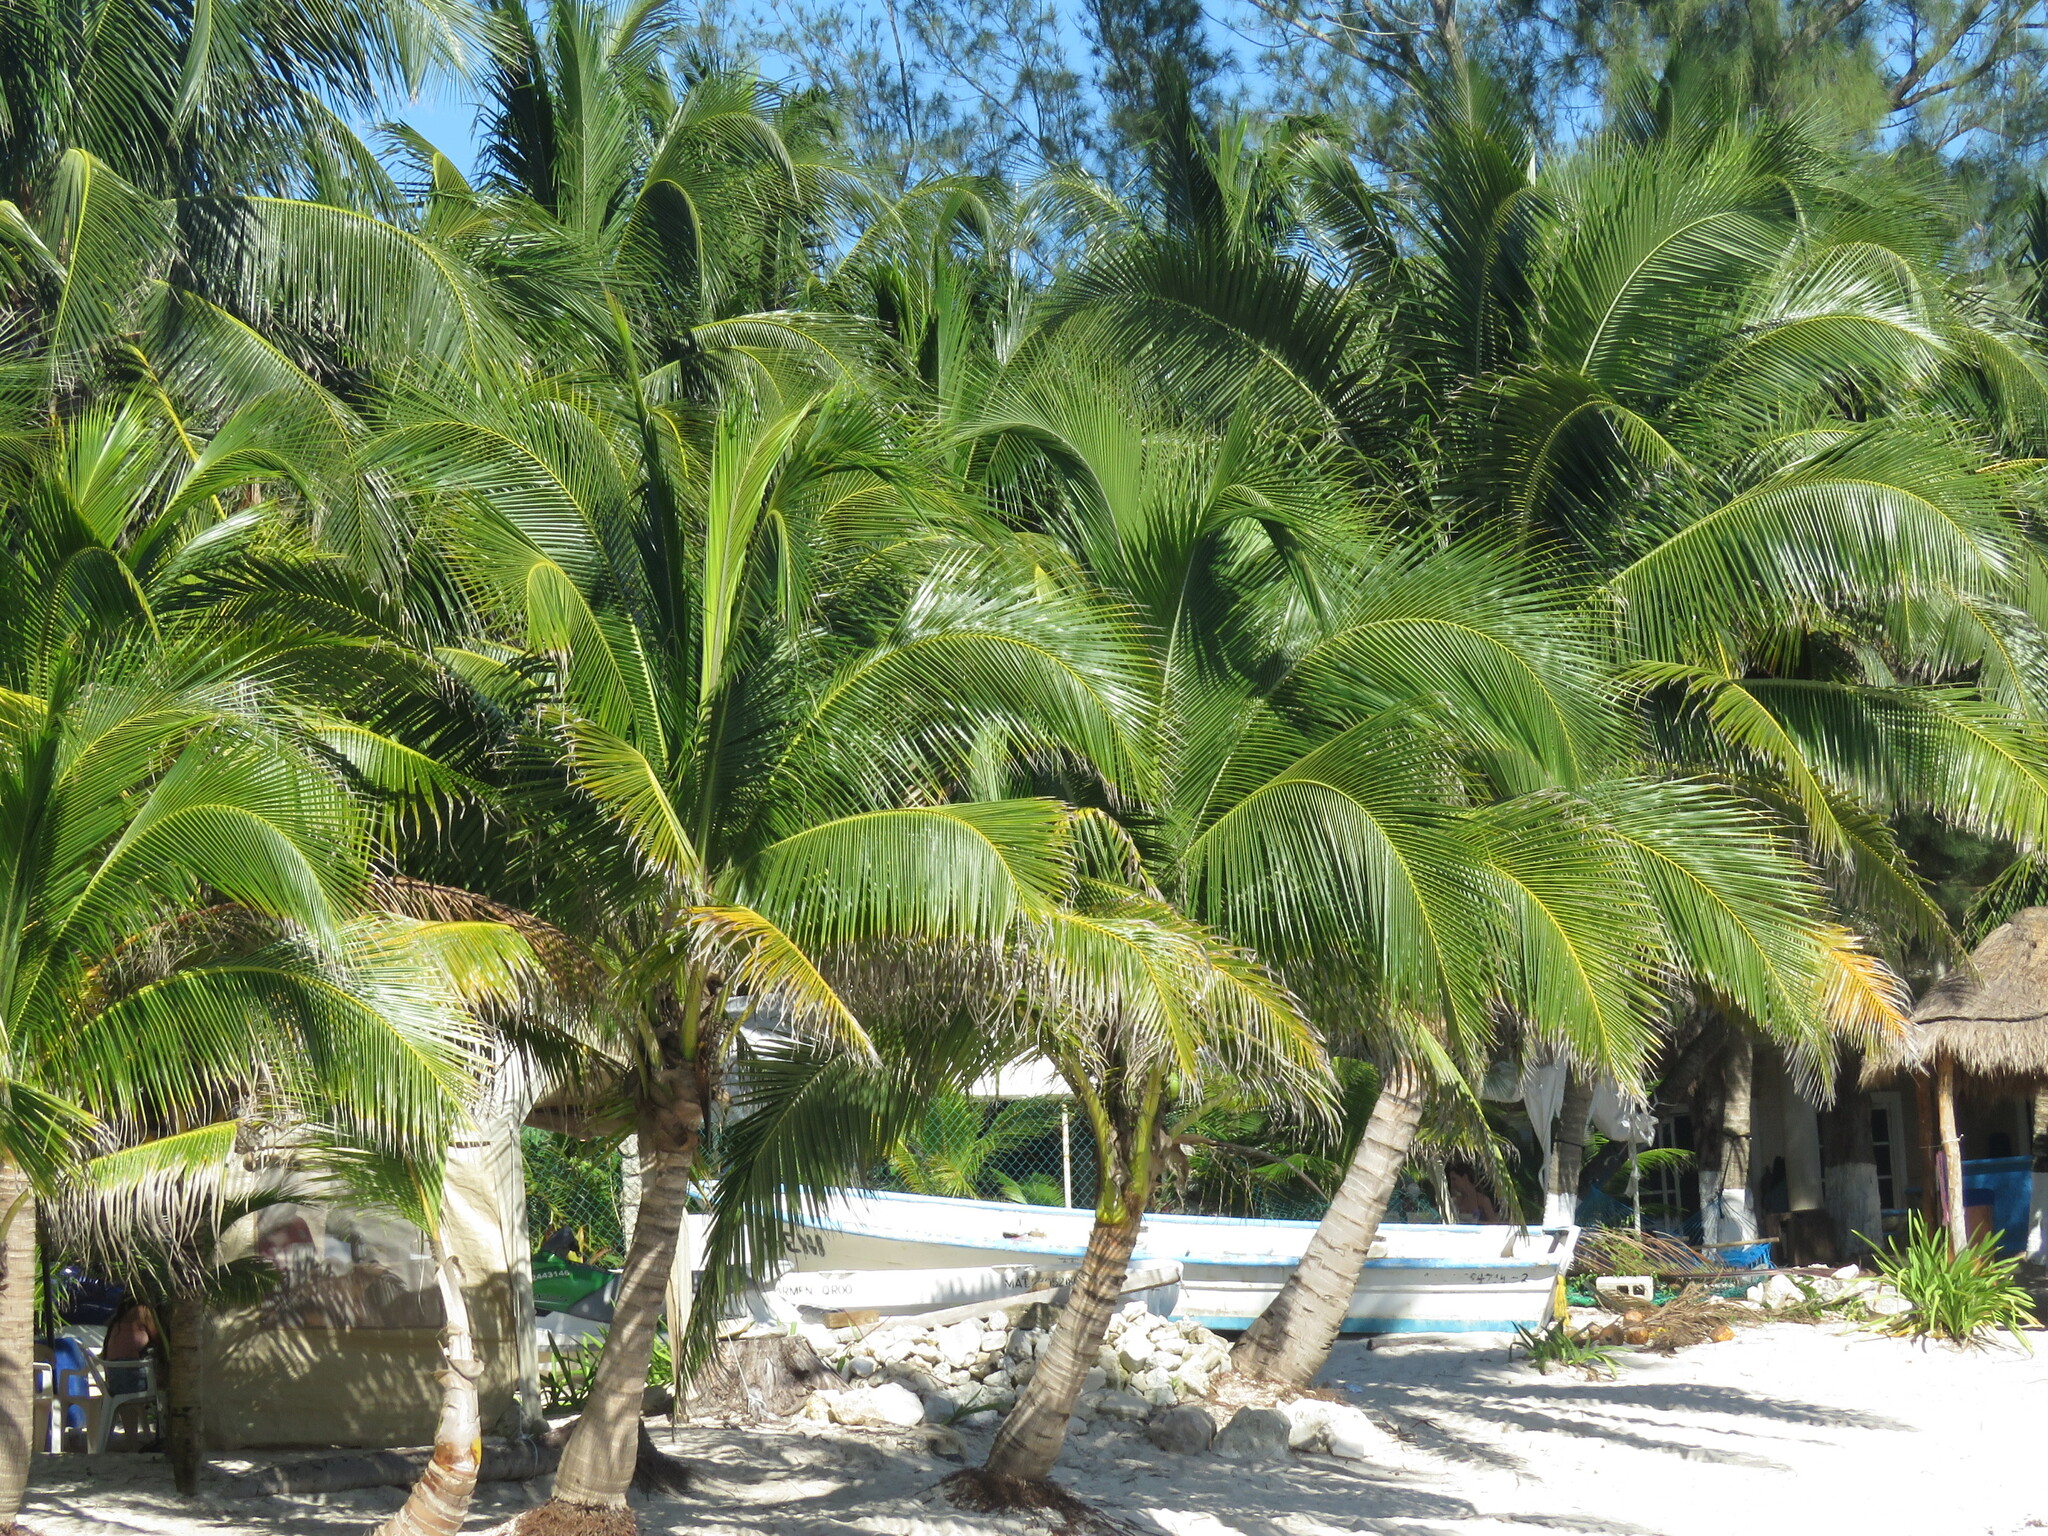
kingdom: Plantae
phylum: Tracheophyta
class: Liliopsida
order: Arecales
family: Arecaceae
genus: Cocos
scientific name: Cocos nucifera
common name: Coconut palm
